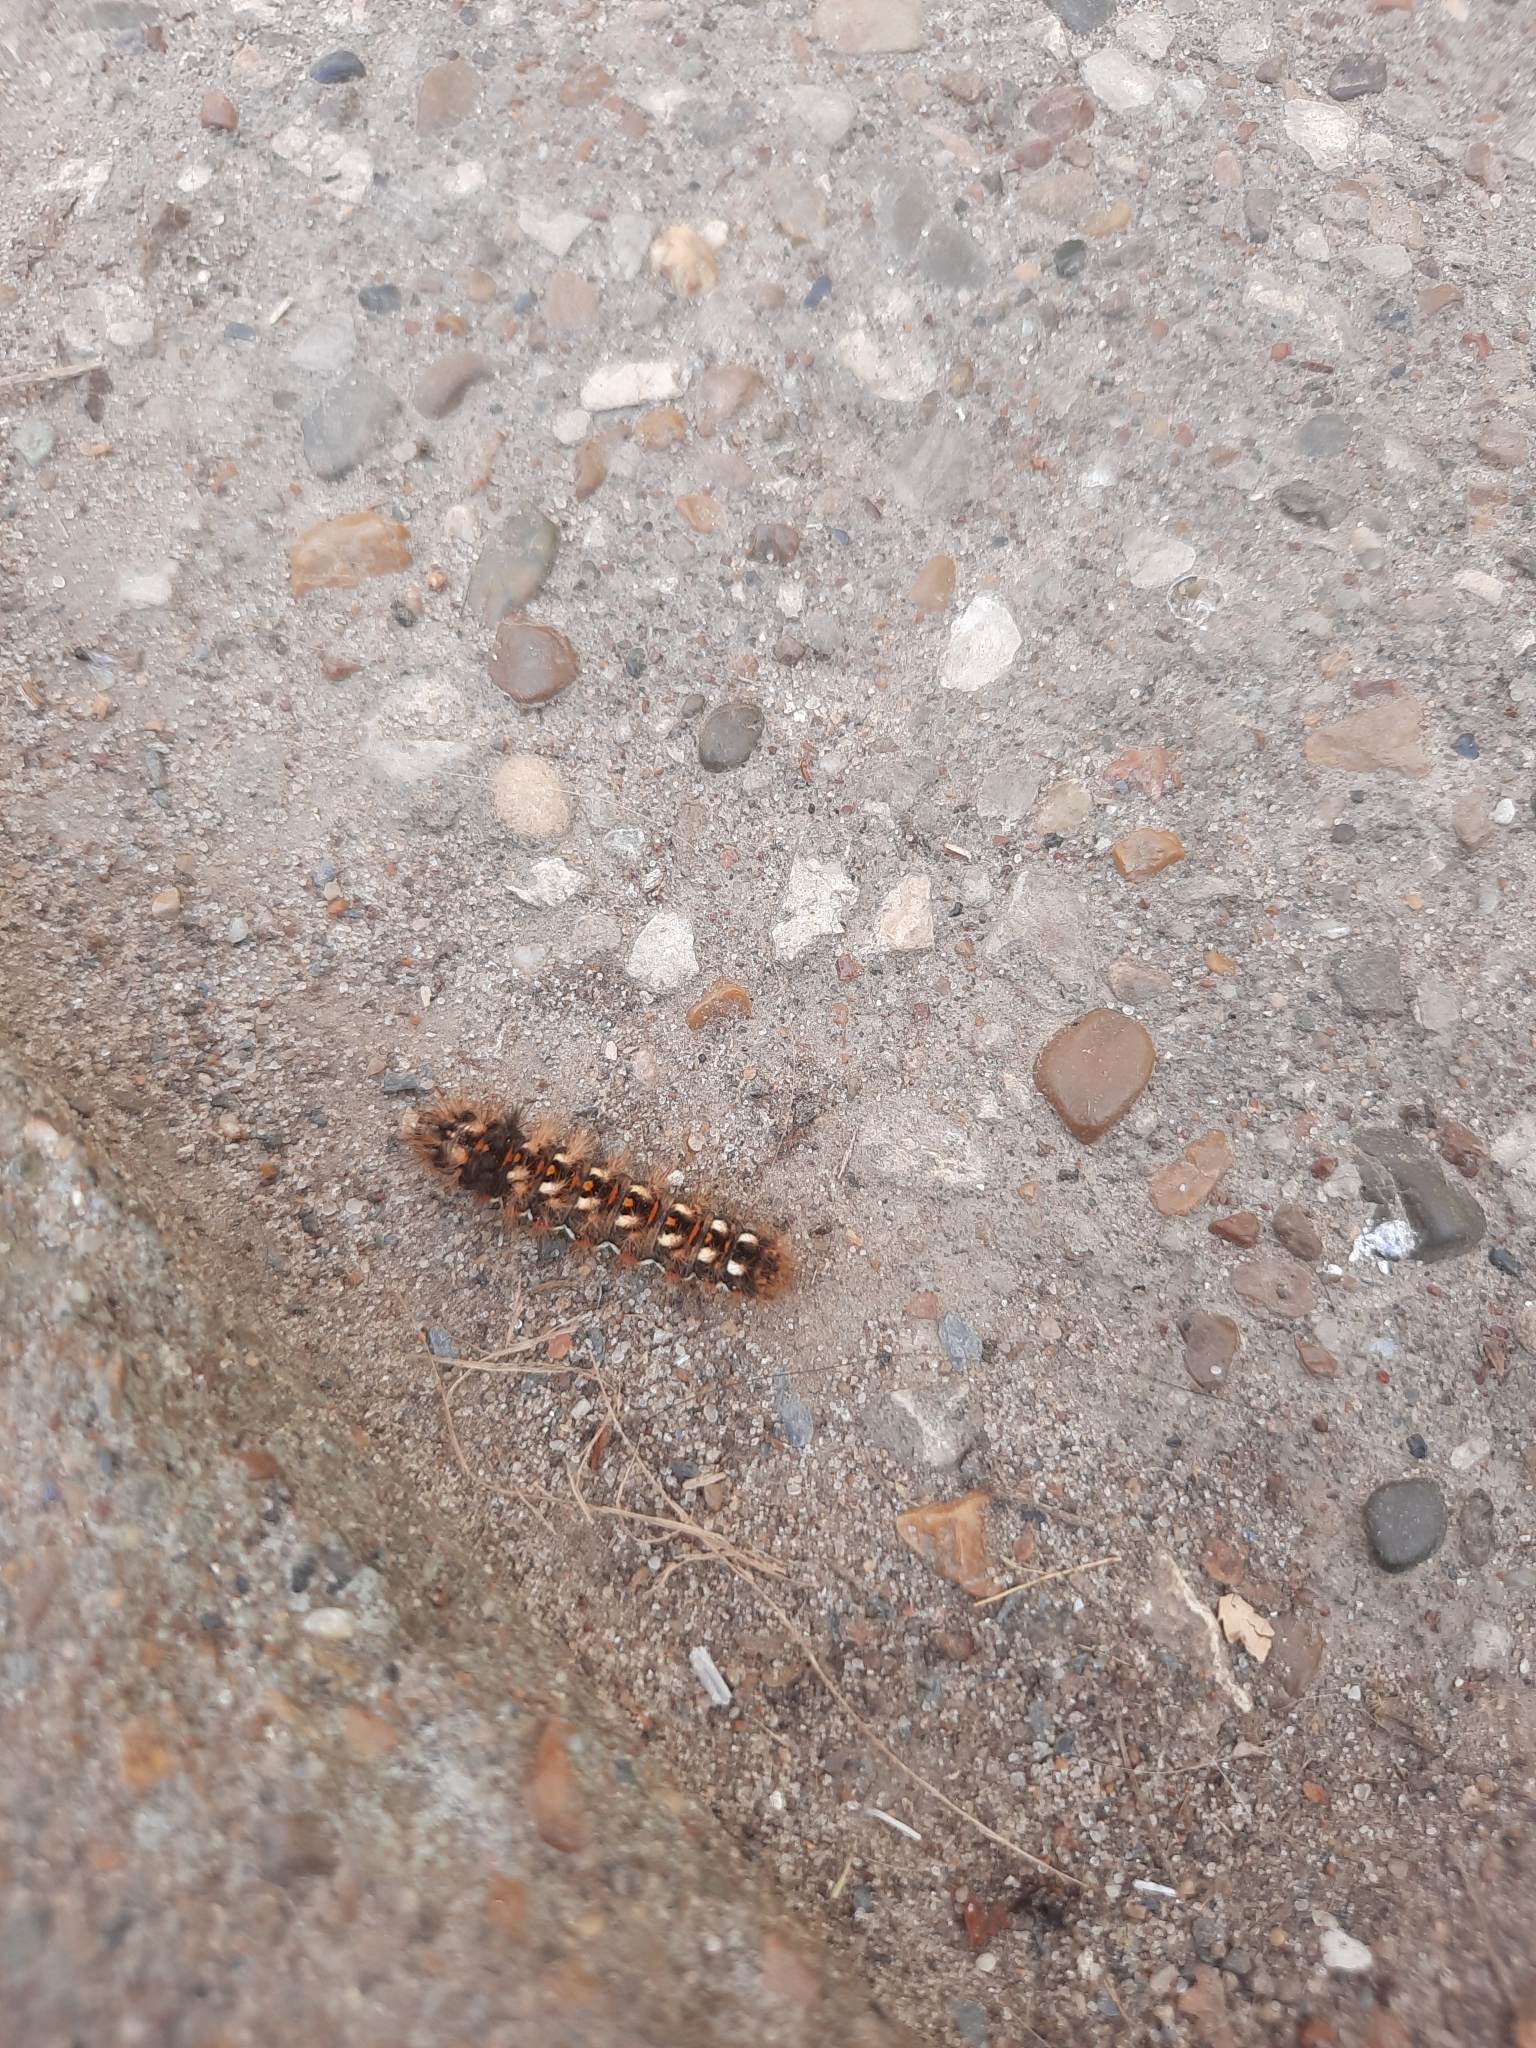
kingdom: Animalia
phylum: Arthropoda
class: Insecta
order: Lepidoptera
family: Noctuidae
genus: Acronicta
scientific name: Acronicta rumicis
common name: Knot grass
